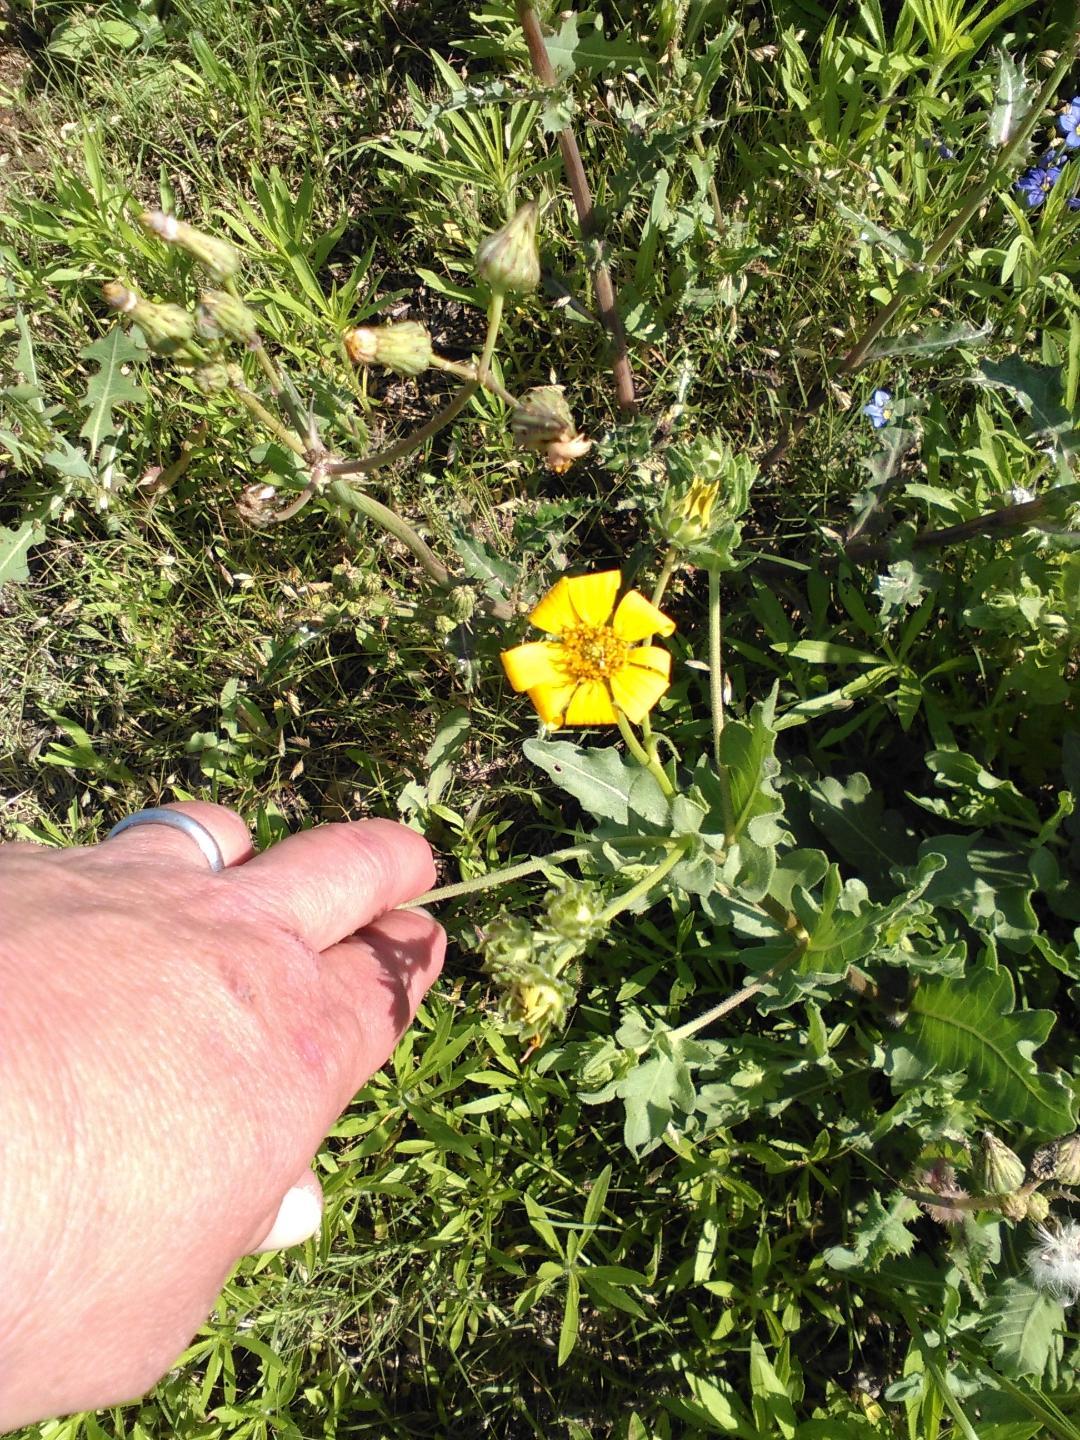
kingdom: Plantae
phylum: Tracheophyta
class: Magnoliopsida
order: Asterales
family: Asteraceae
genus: Engelmannia
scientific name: Engelmannia peristenia
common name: Engelmann's daisy
